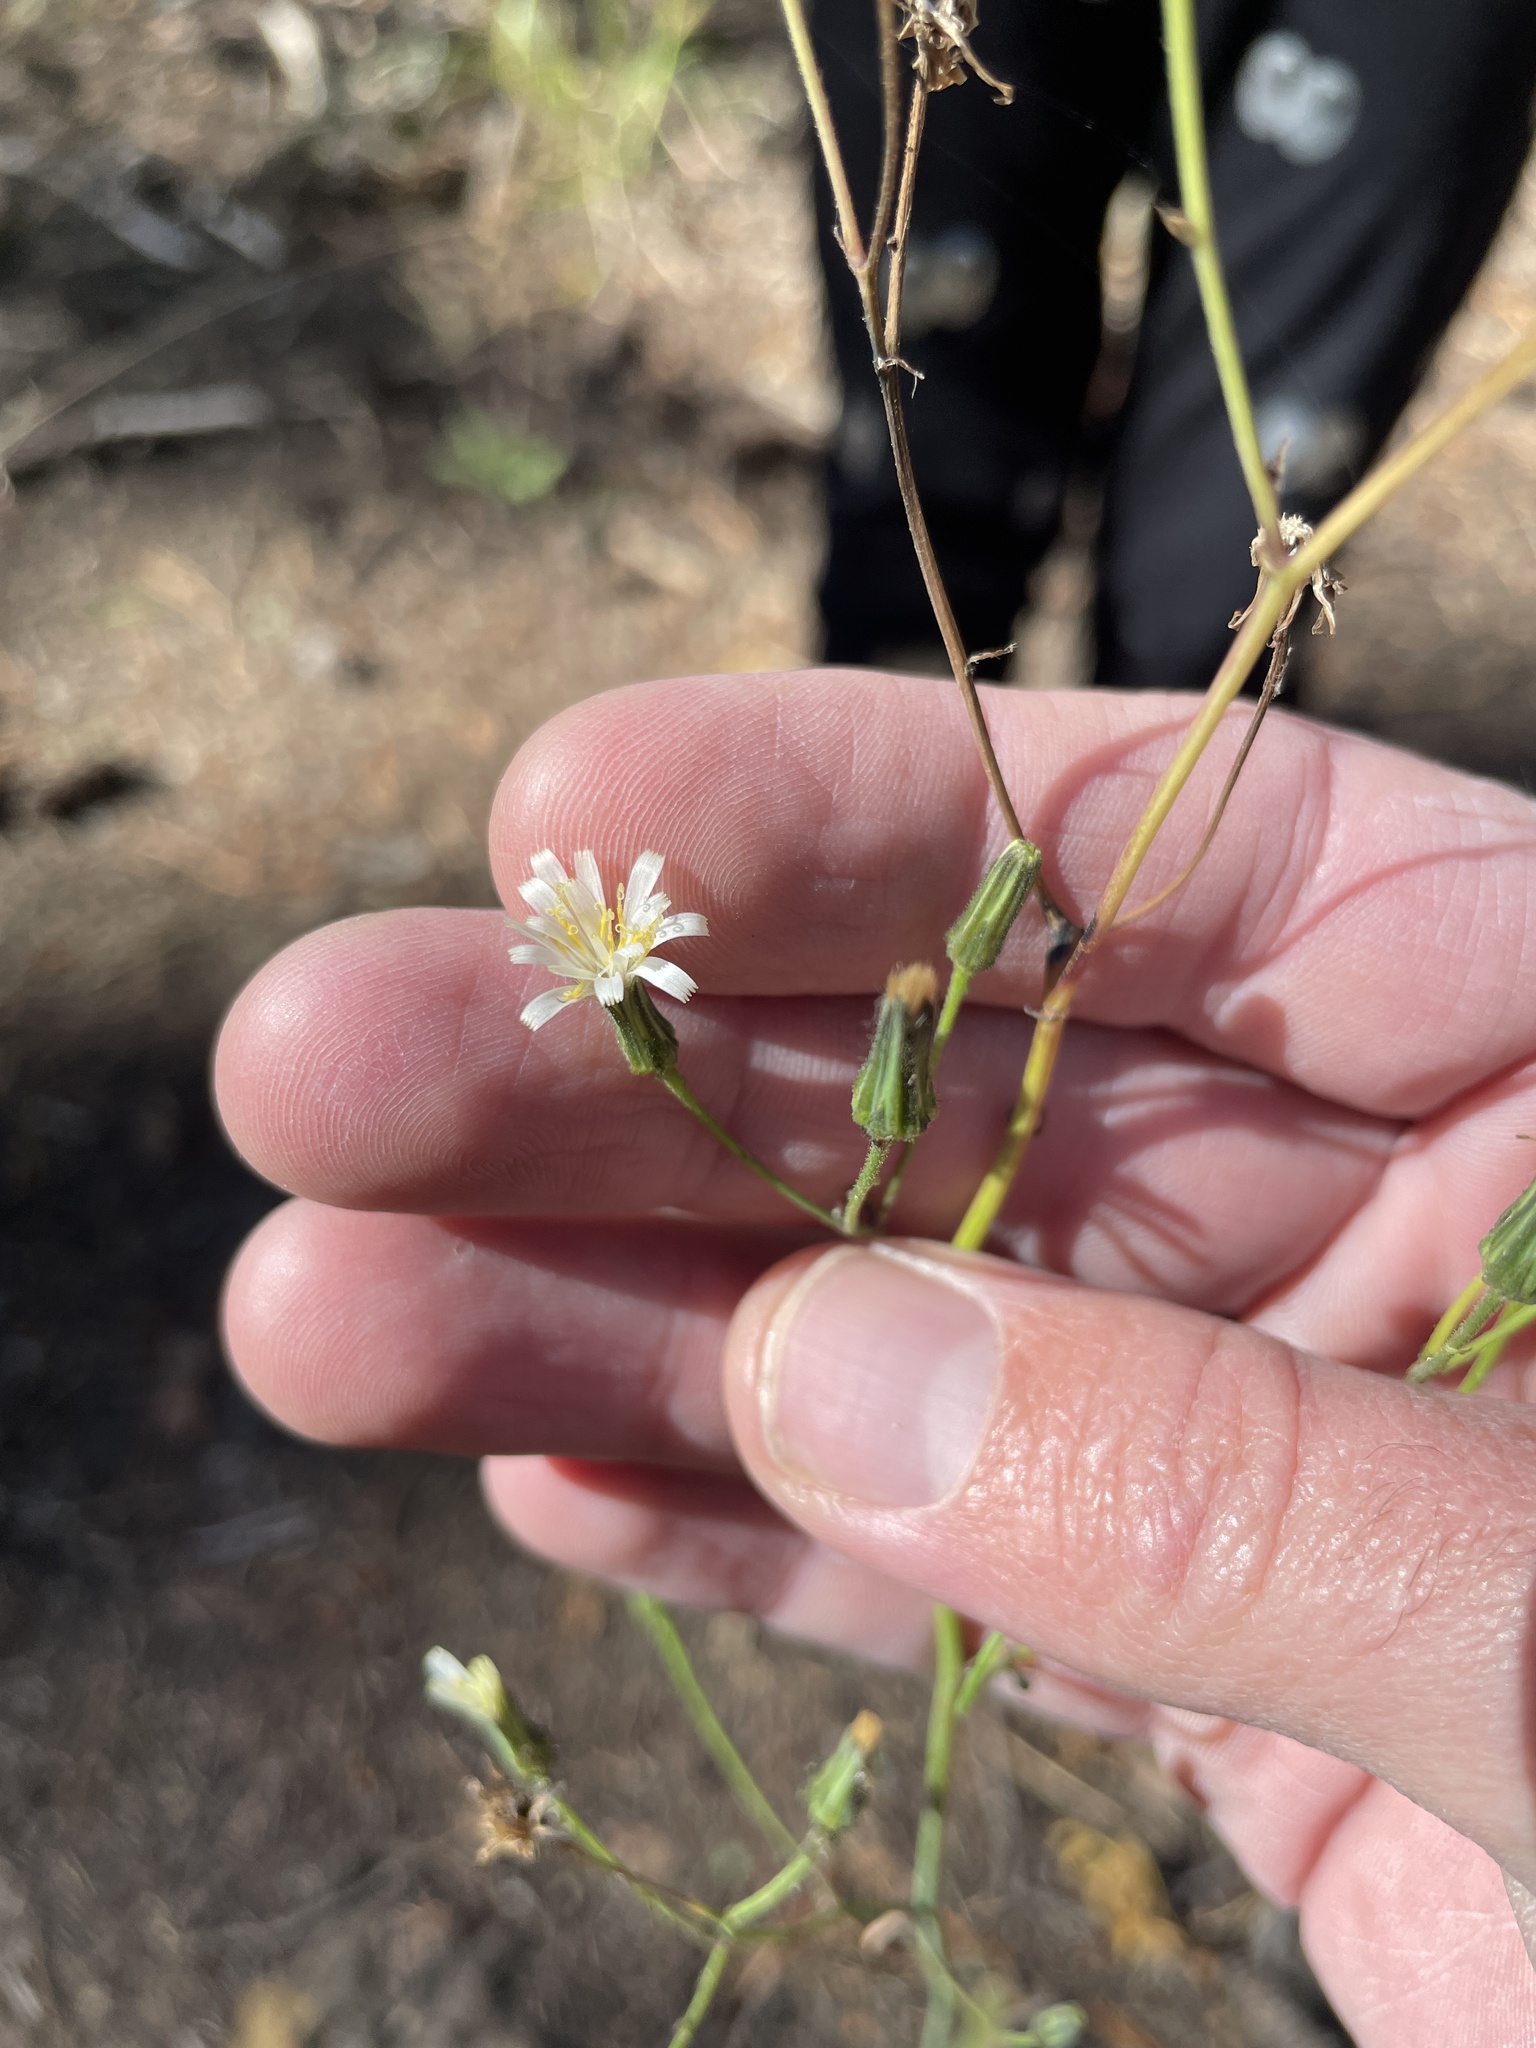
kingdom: Plantae
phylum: Tracheophyta
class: Magnoliopsida
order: Asterales
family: Asteraceae
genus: Hieracium
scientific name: Hieracium albiflorum
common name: White hawkweed
